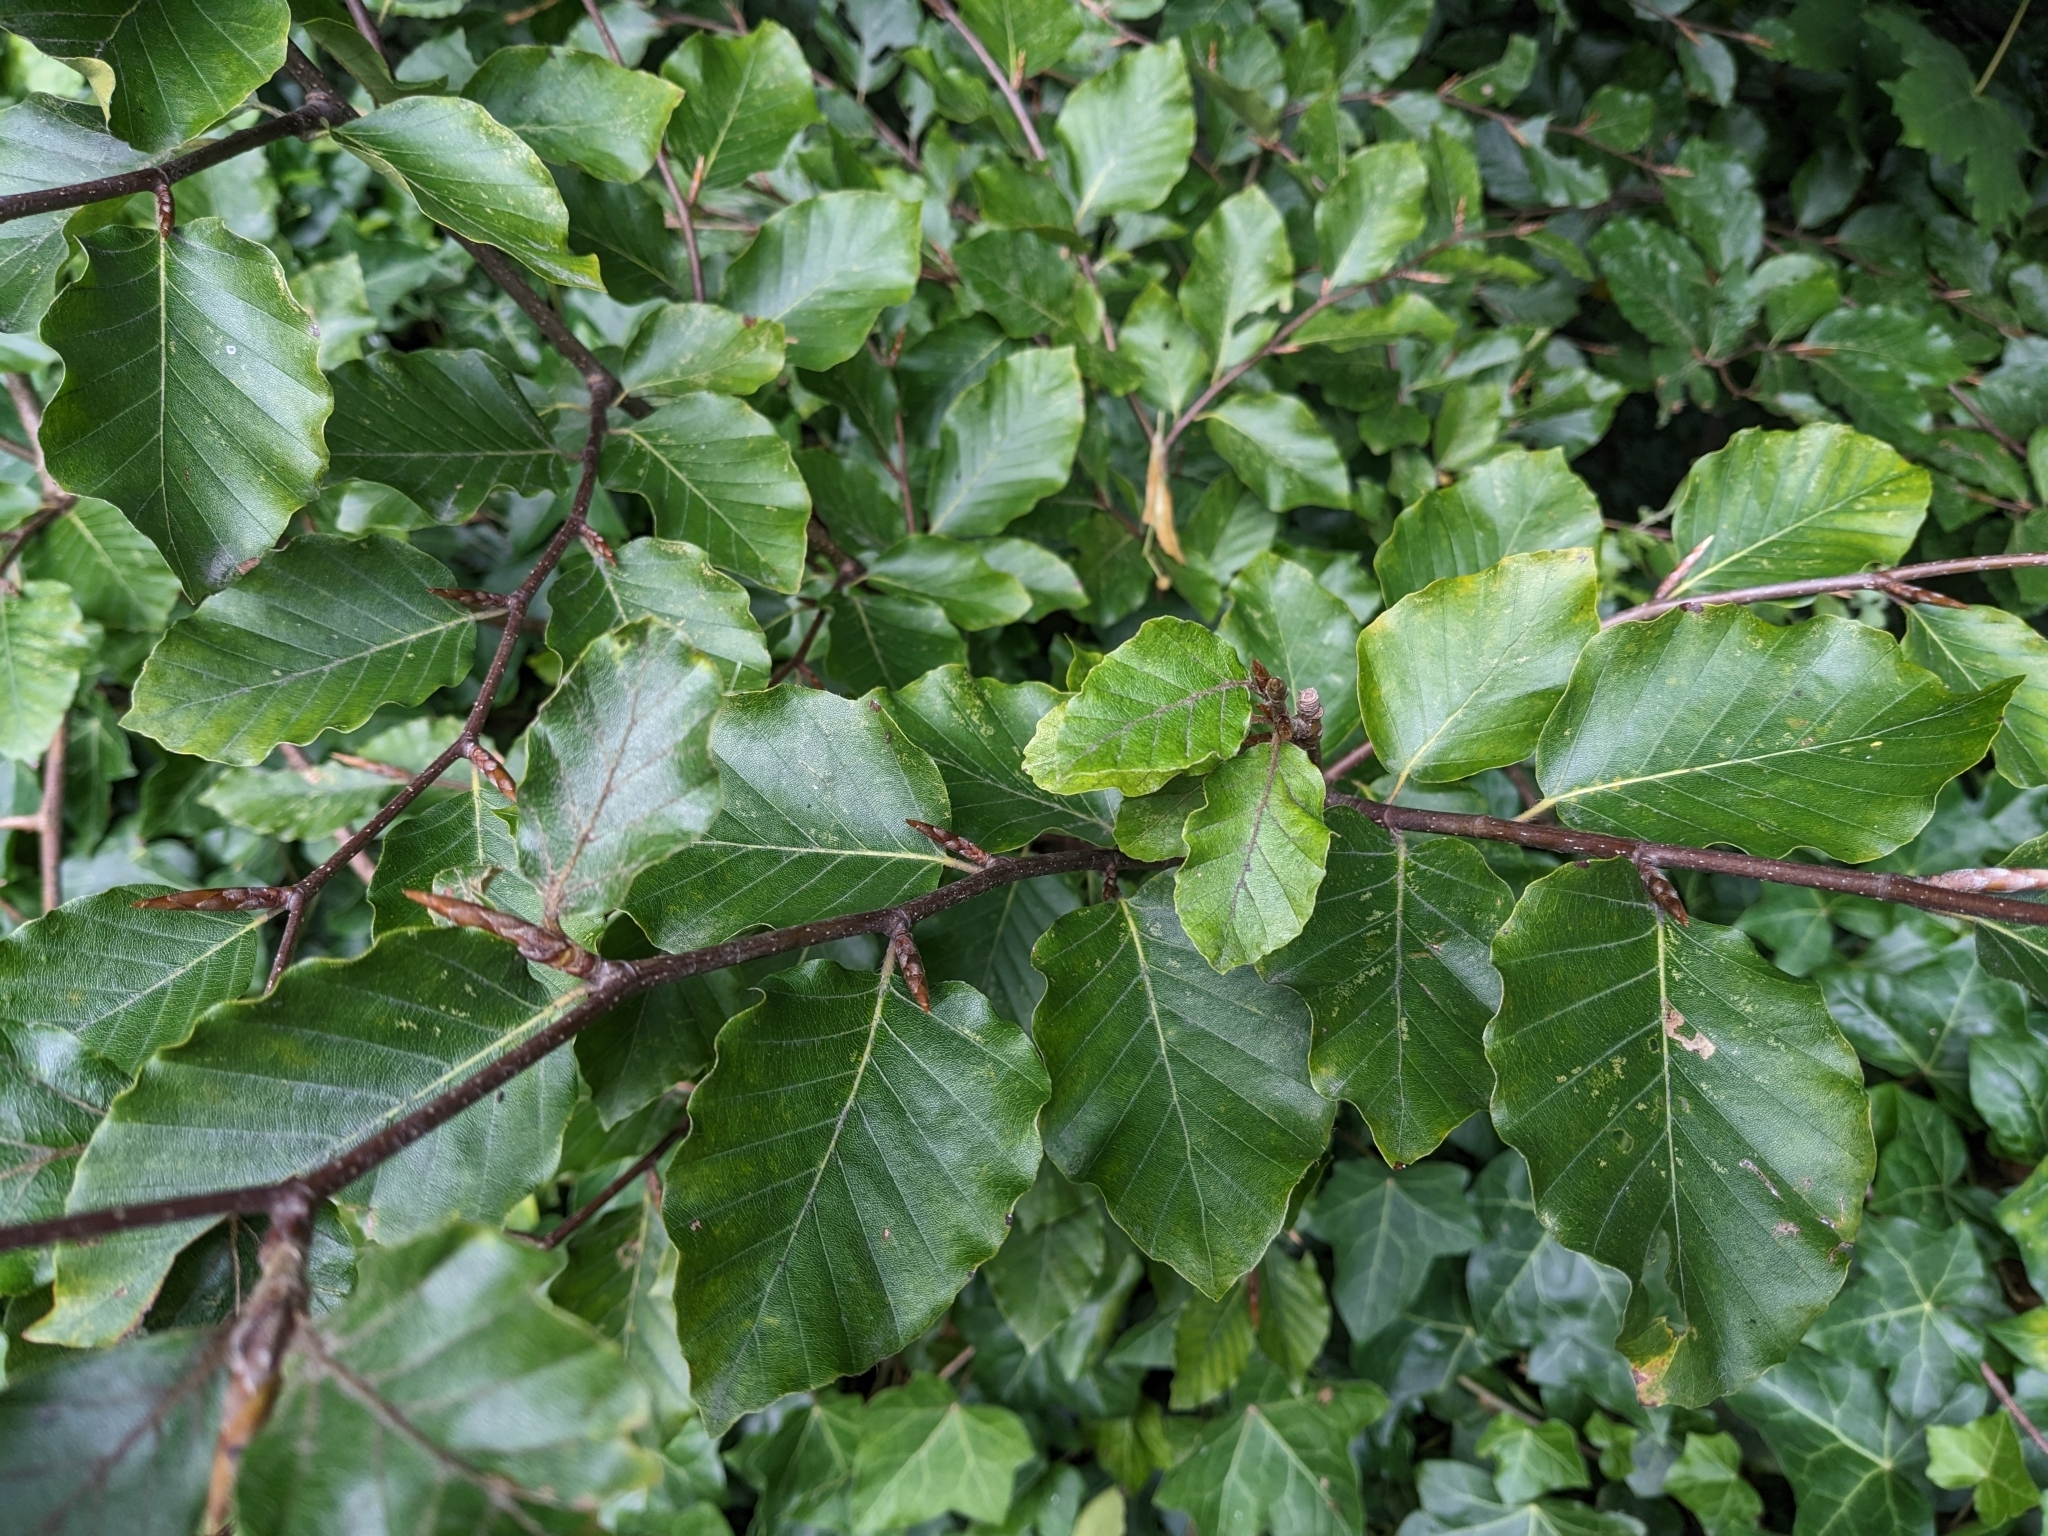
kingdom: Plantae
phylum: Tracheophyta
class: Magnoliopsida
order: Fagales
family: Fagaceae
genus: Fagus
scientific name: Fagus sylvatica
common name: Beech
